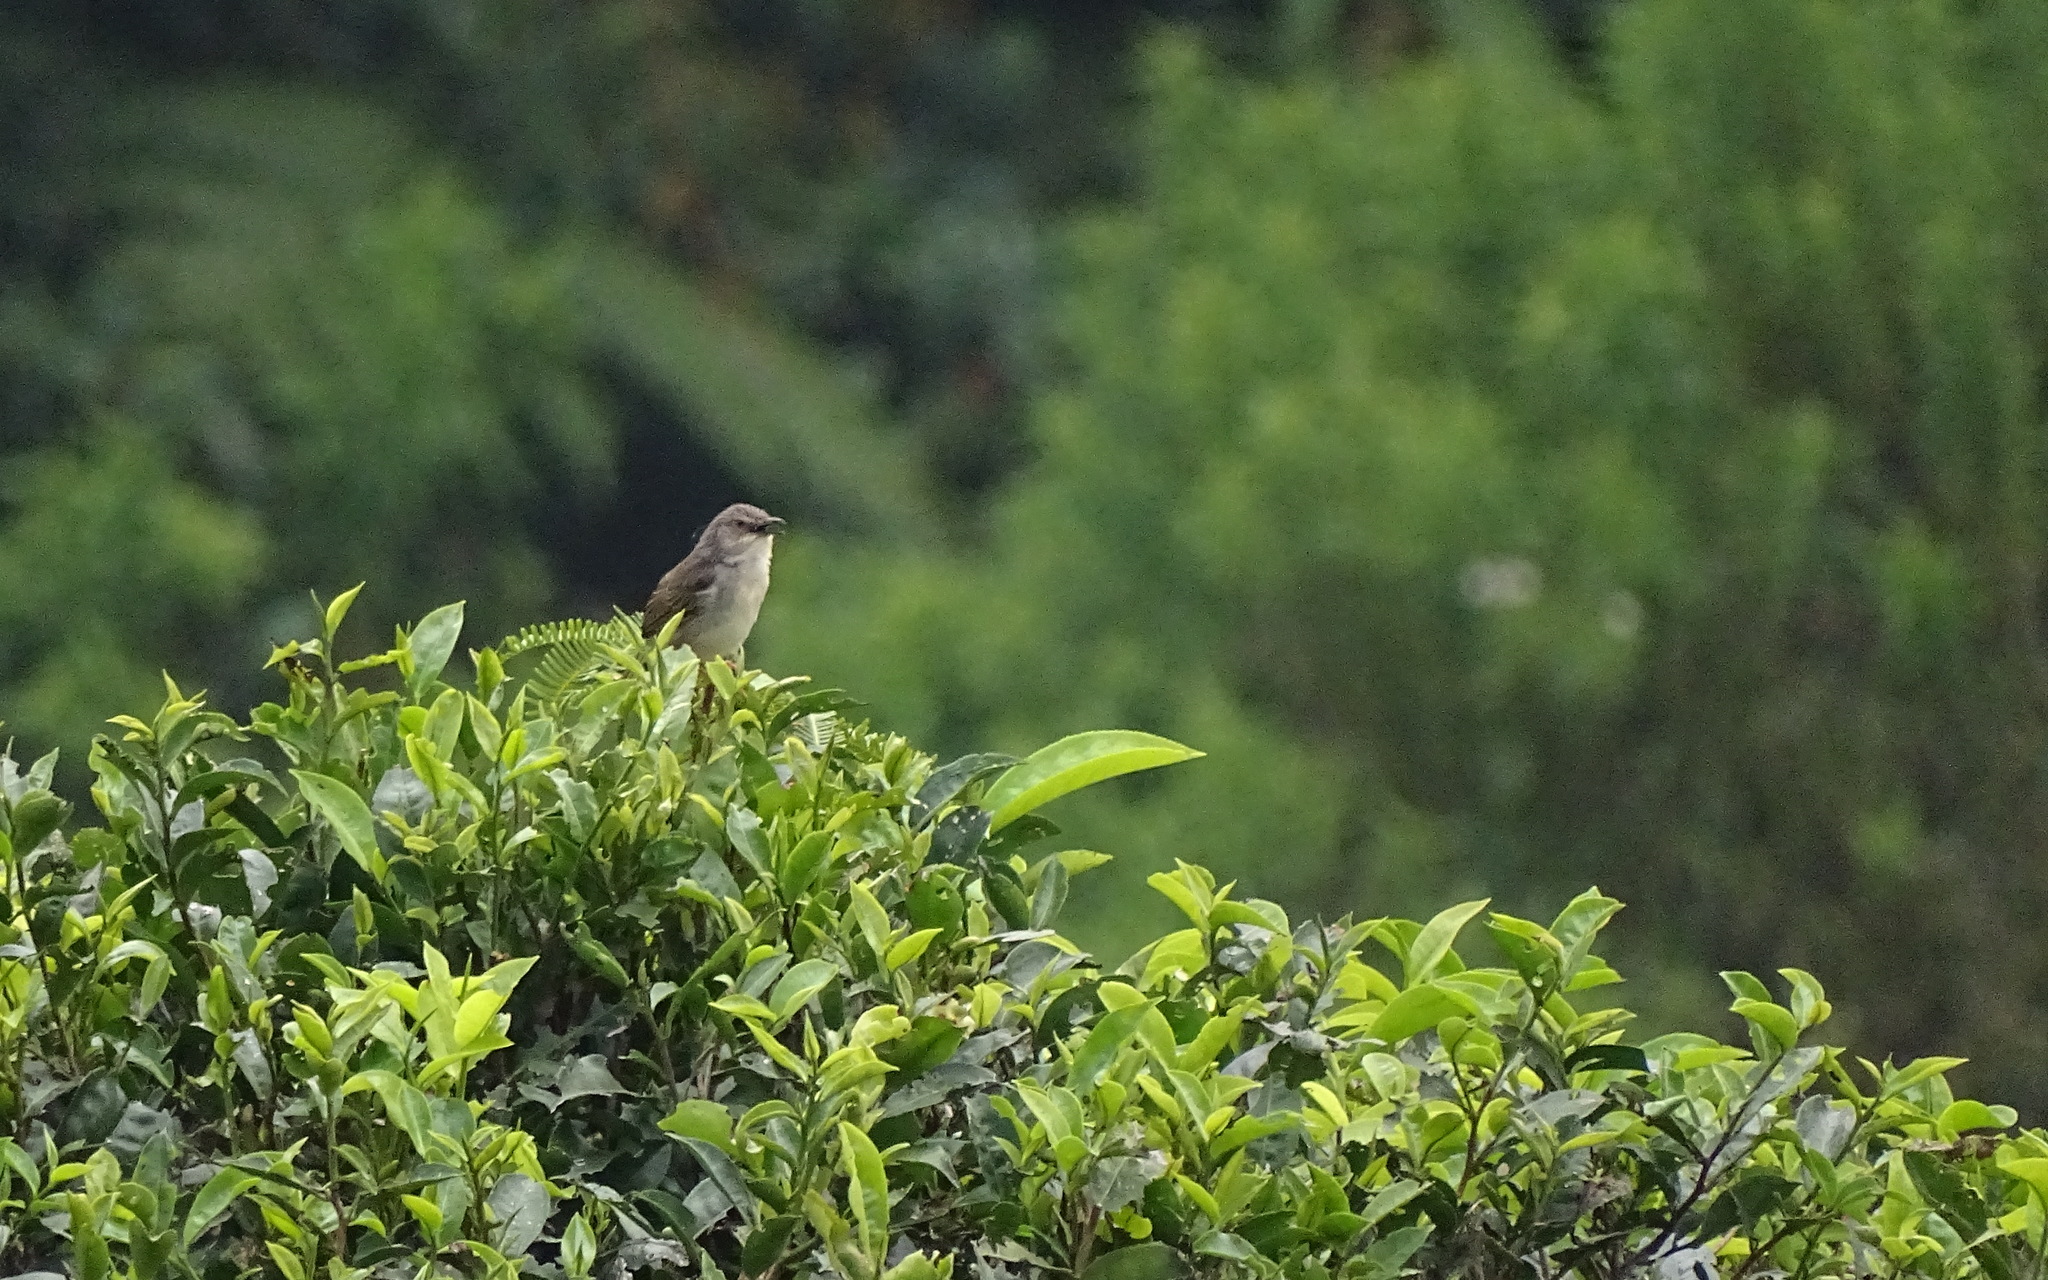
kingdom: Animalia
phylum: Chordata
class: Aves
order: Passeriformes
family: Cisticolidae
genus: Prinia
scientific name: Prinia polychroa
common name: Brown prinia
